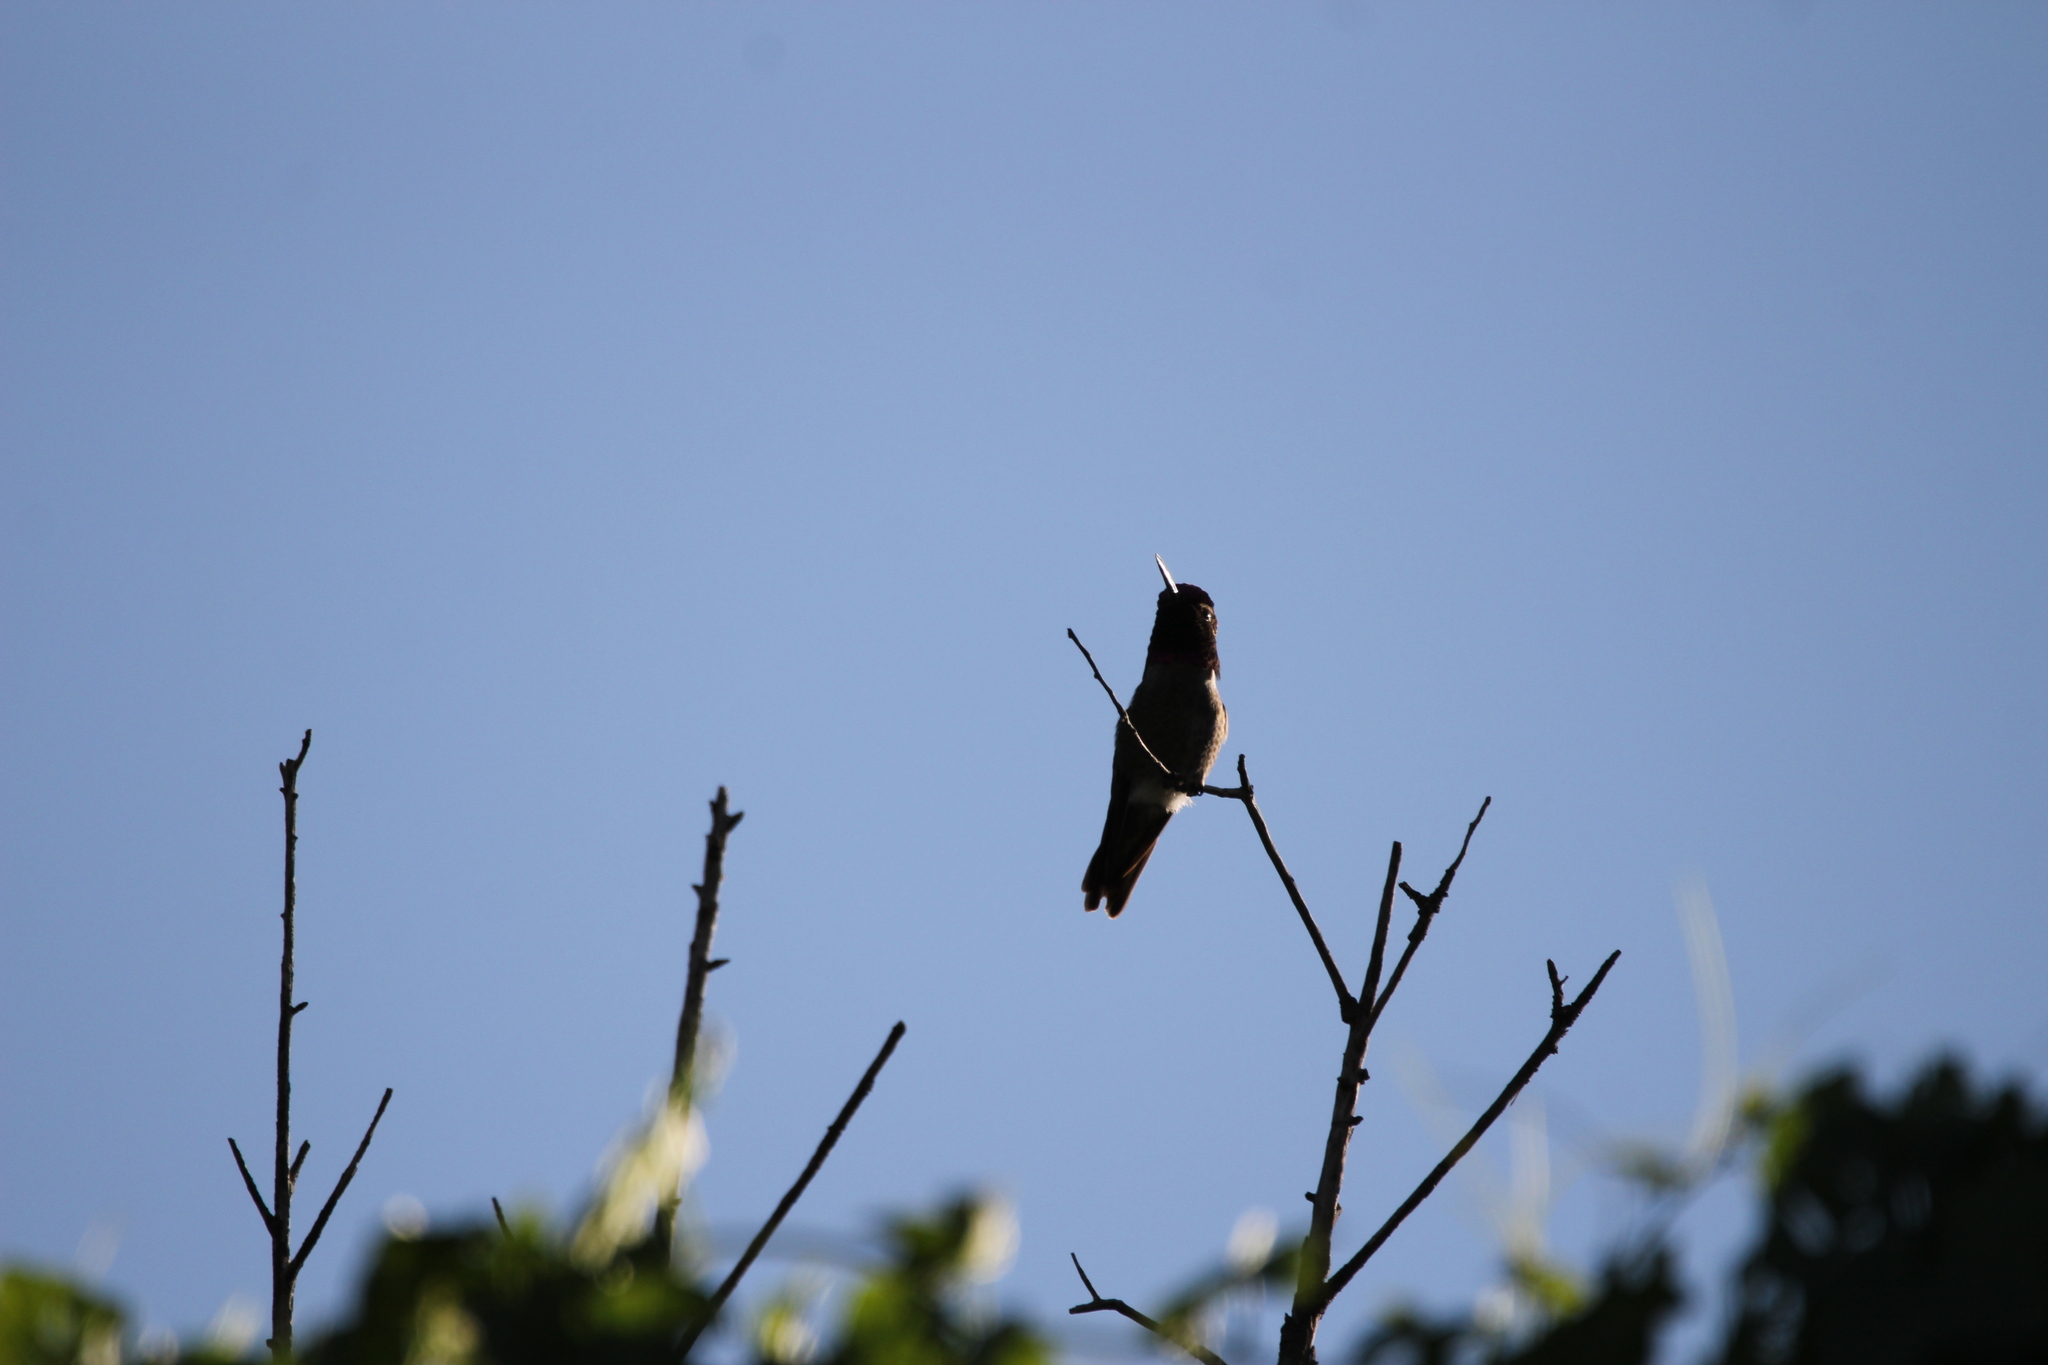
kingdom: Animalia
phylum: Chordata
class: Aves
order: Apodiformes
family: Trochilidae
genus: Calypte
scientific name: Calypte anna
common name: Anna's hummingbird
